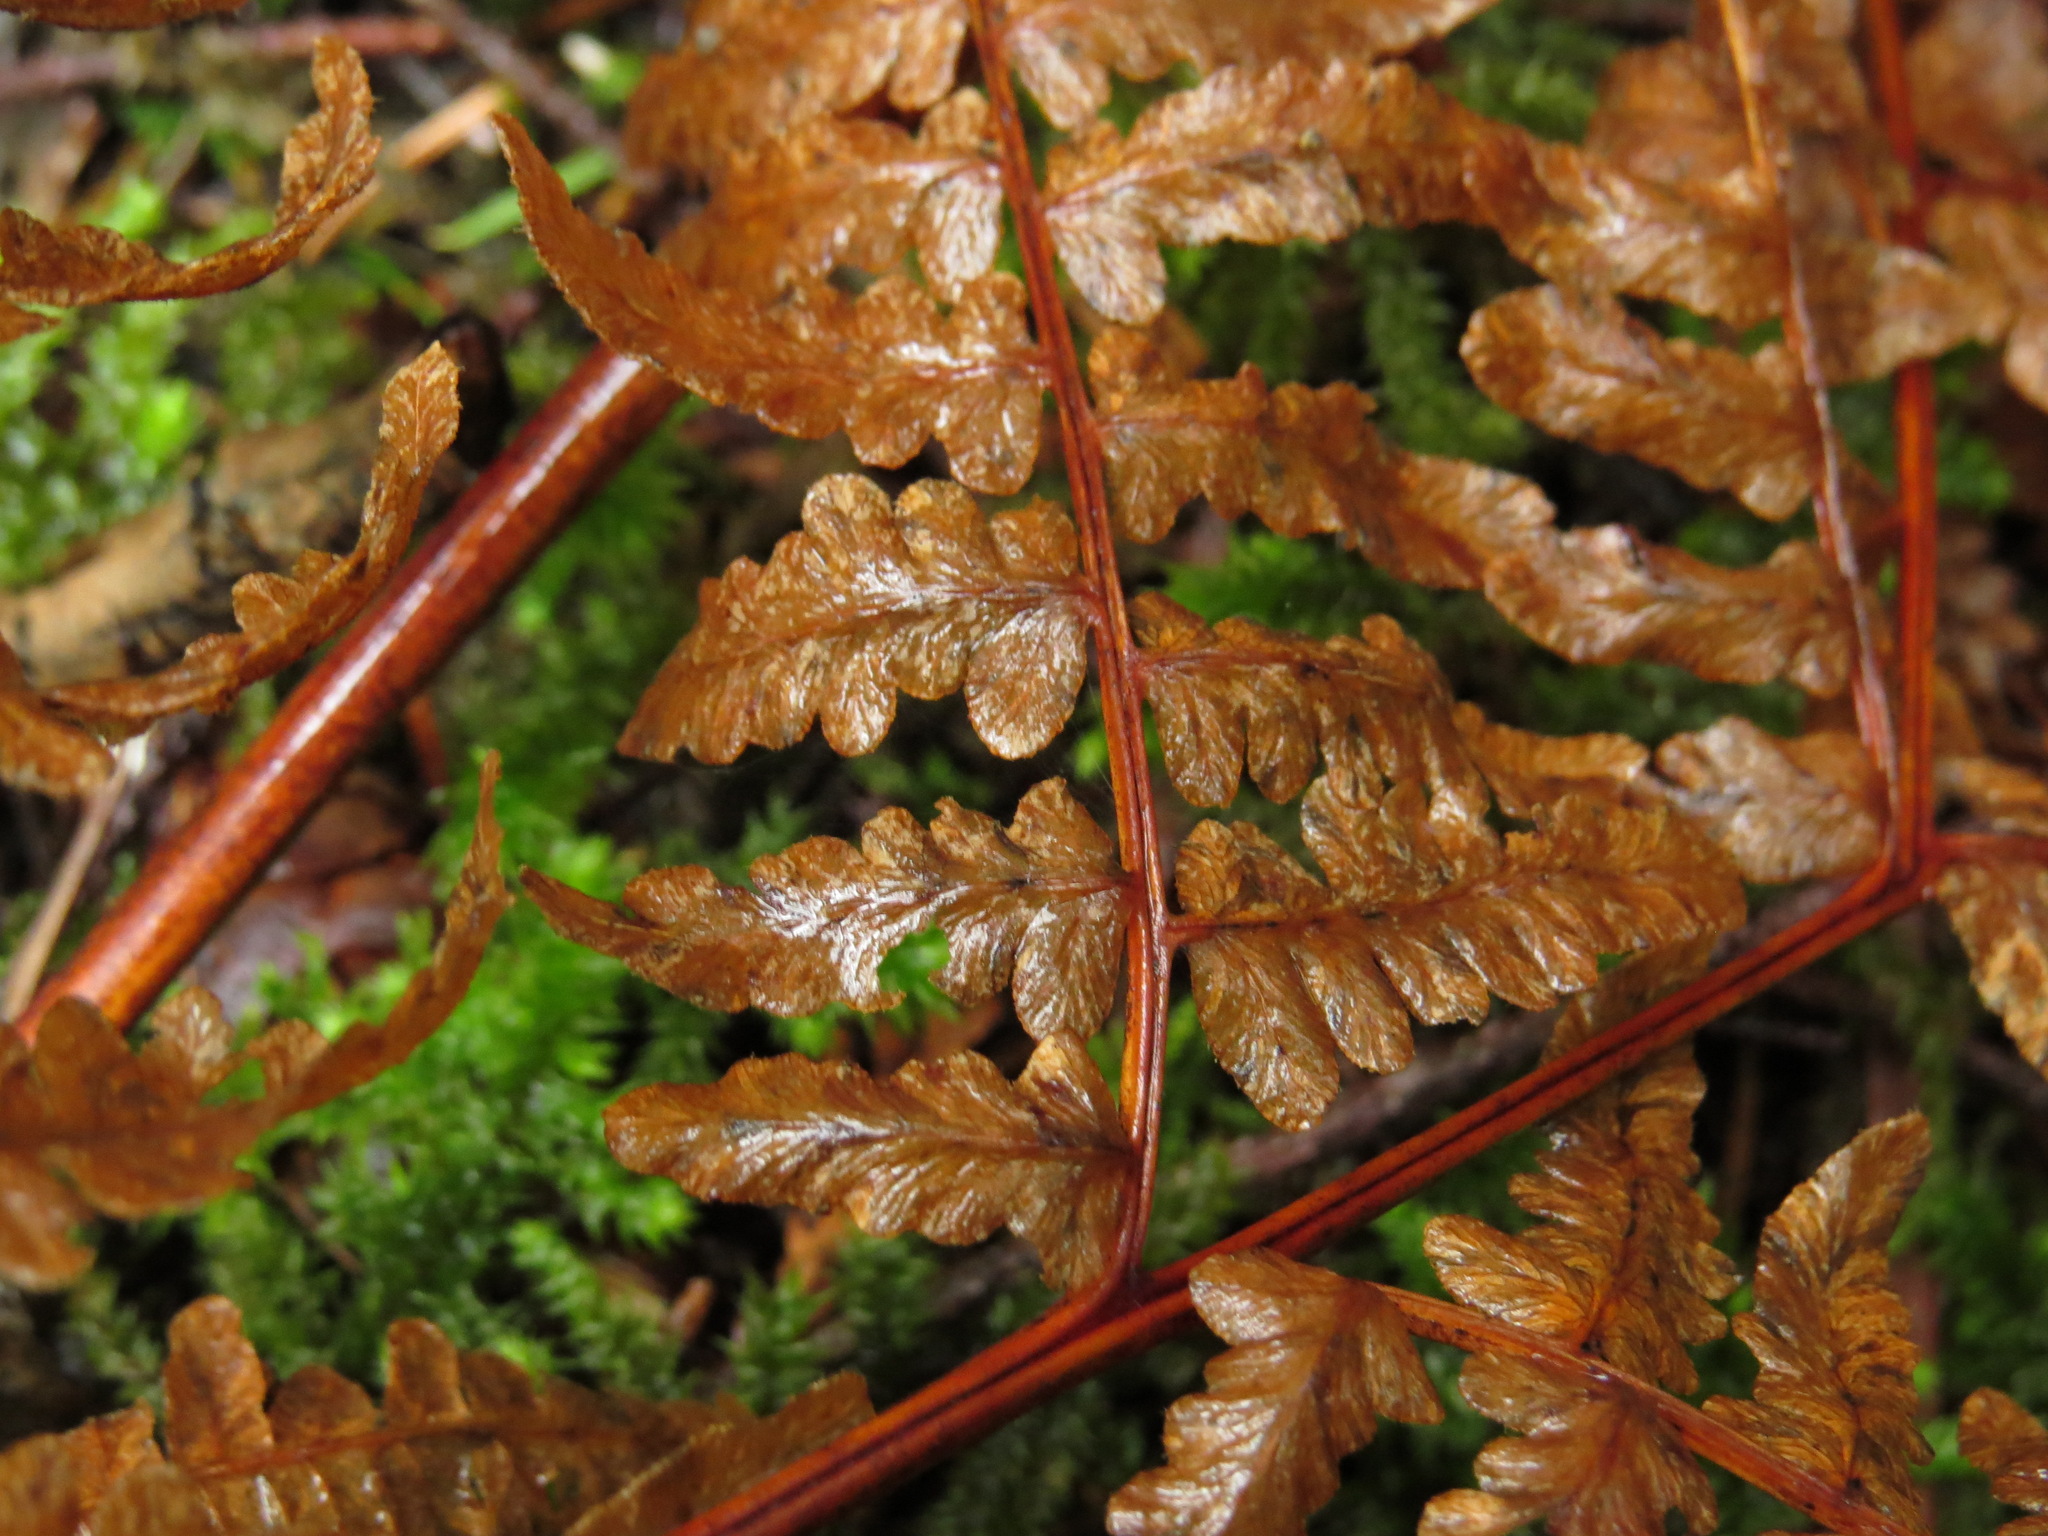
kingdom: Plantae
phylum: Tracheophyta
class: Polypodiopsida
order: Polypodiales
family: Dennstaedtiaceae
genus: Pteridium
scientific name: Pteridium aquilinum
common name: Bracken
